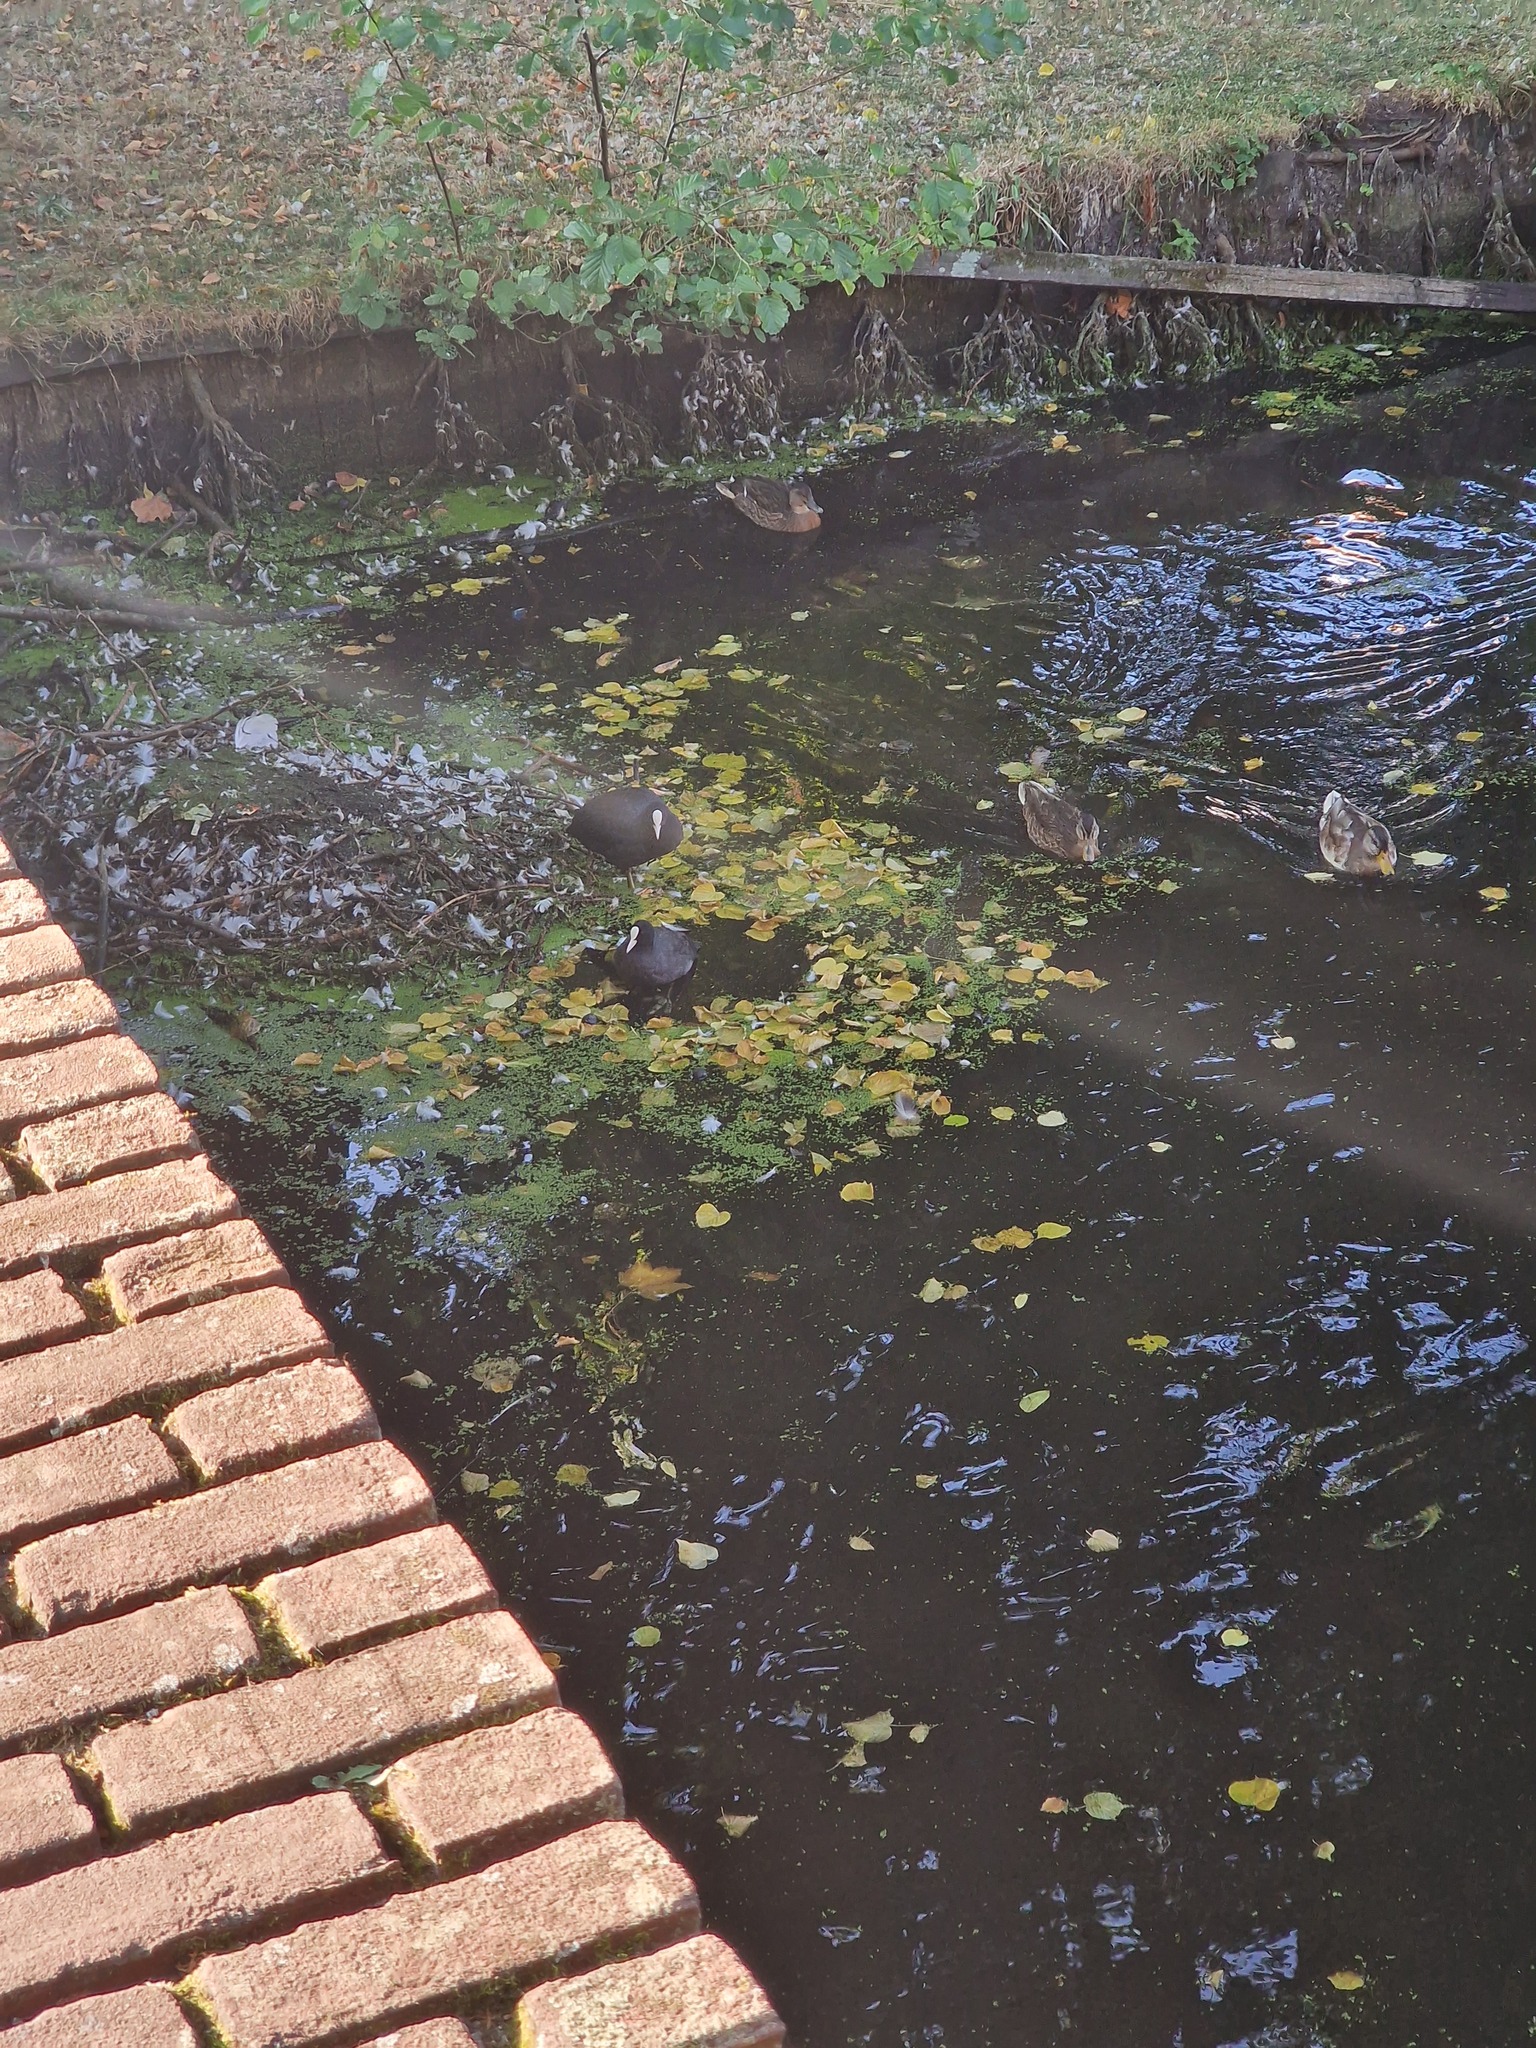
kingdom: Animalia
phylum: Chordata
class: Aves
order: Gruiformes
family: Rallidae
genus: Fulica
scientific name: Fulica atra
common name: Eurasian coot
